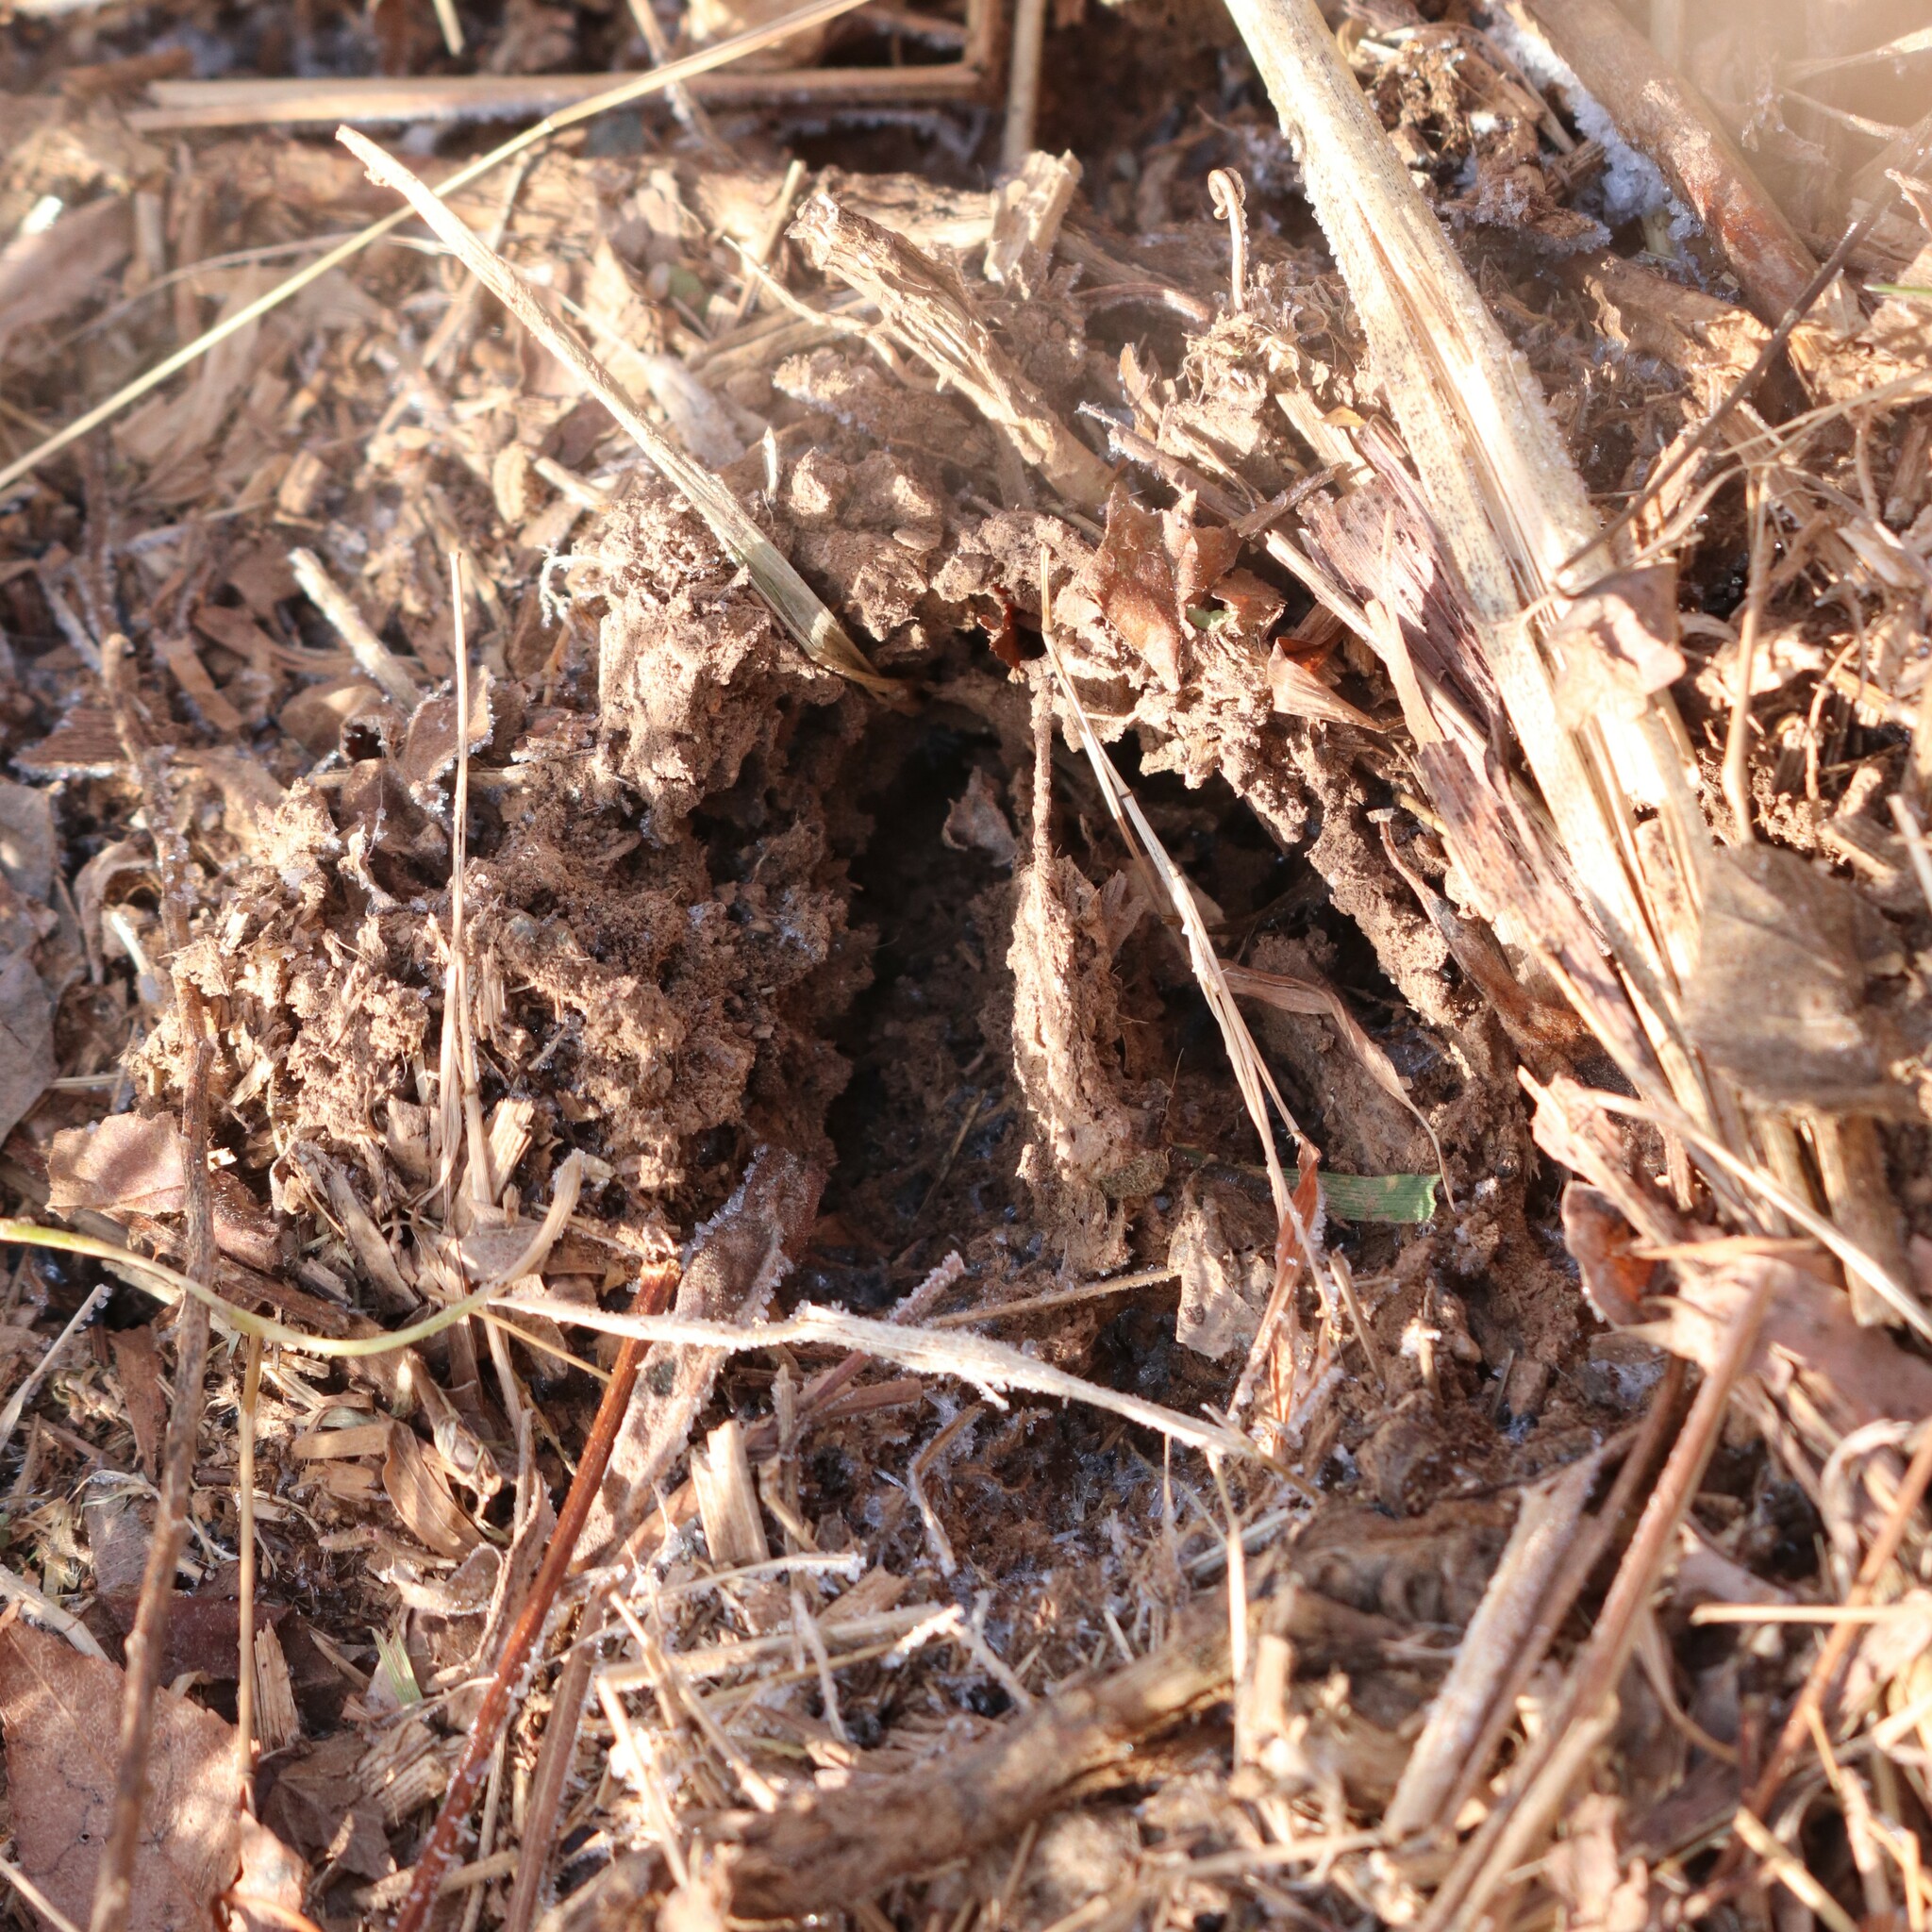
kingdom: Animalia
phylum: Chordata
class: Mammalia
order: Artiodactyla
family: Cervidae
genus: Odocoileus
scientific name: Odocoileus virginianus
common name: White-tailed deer
